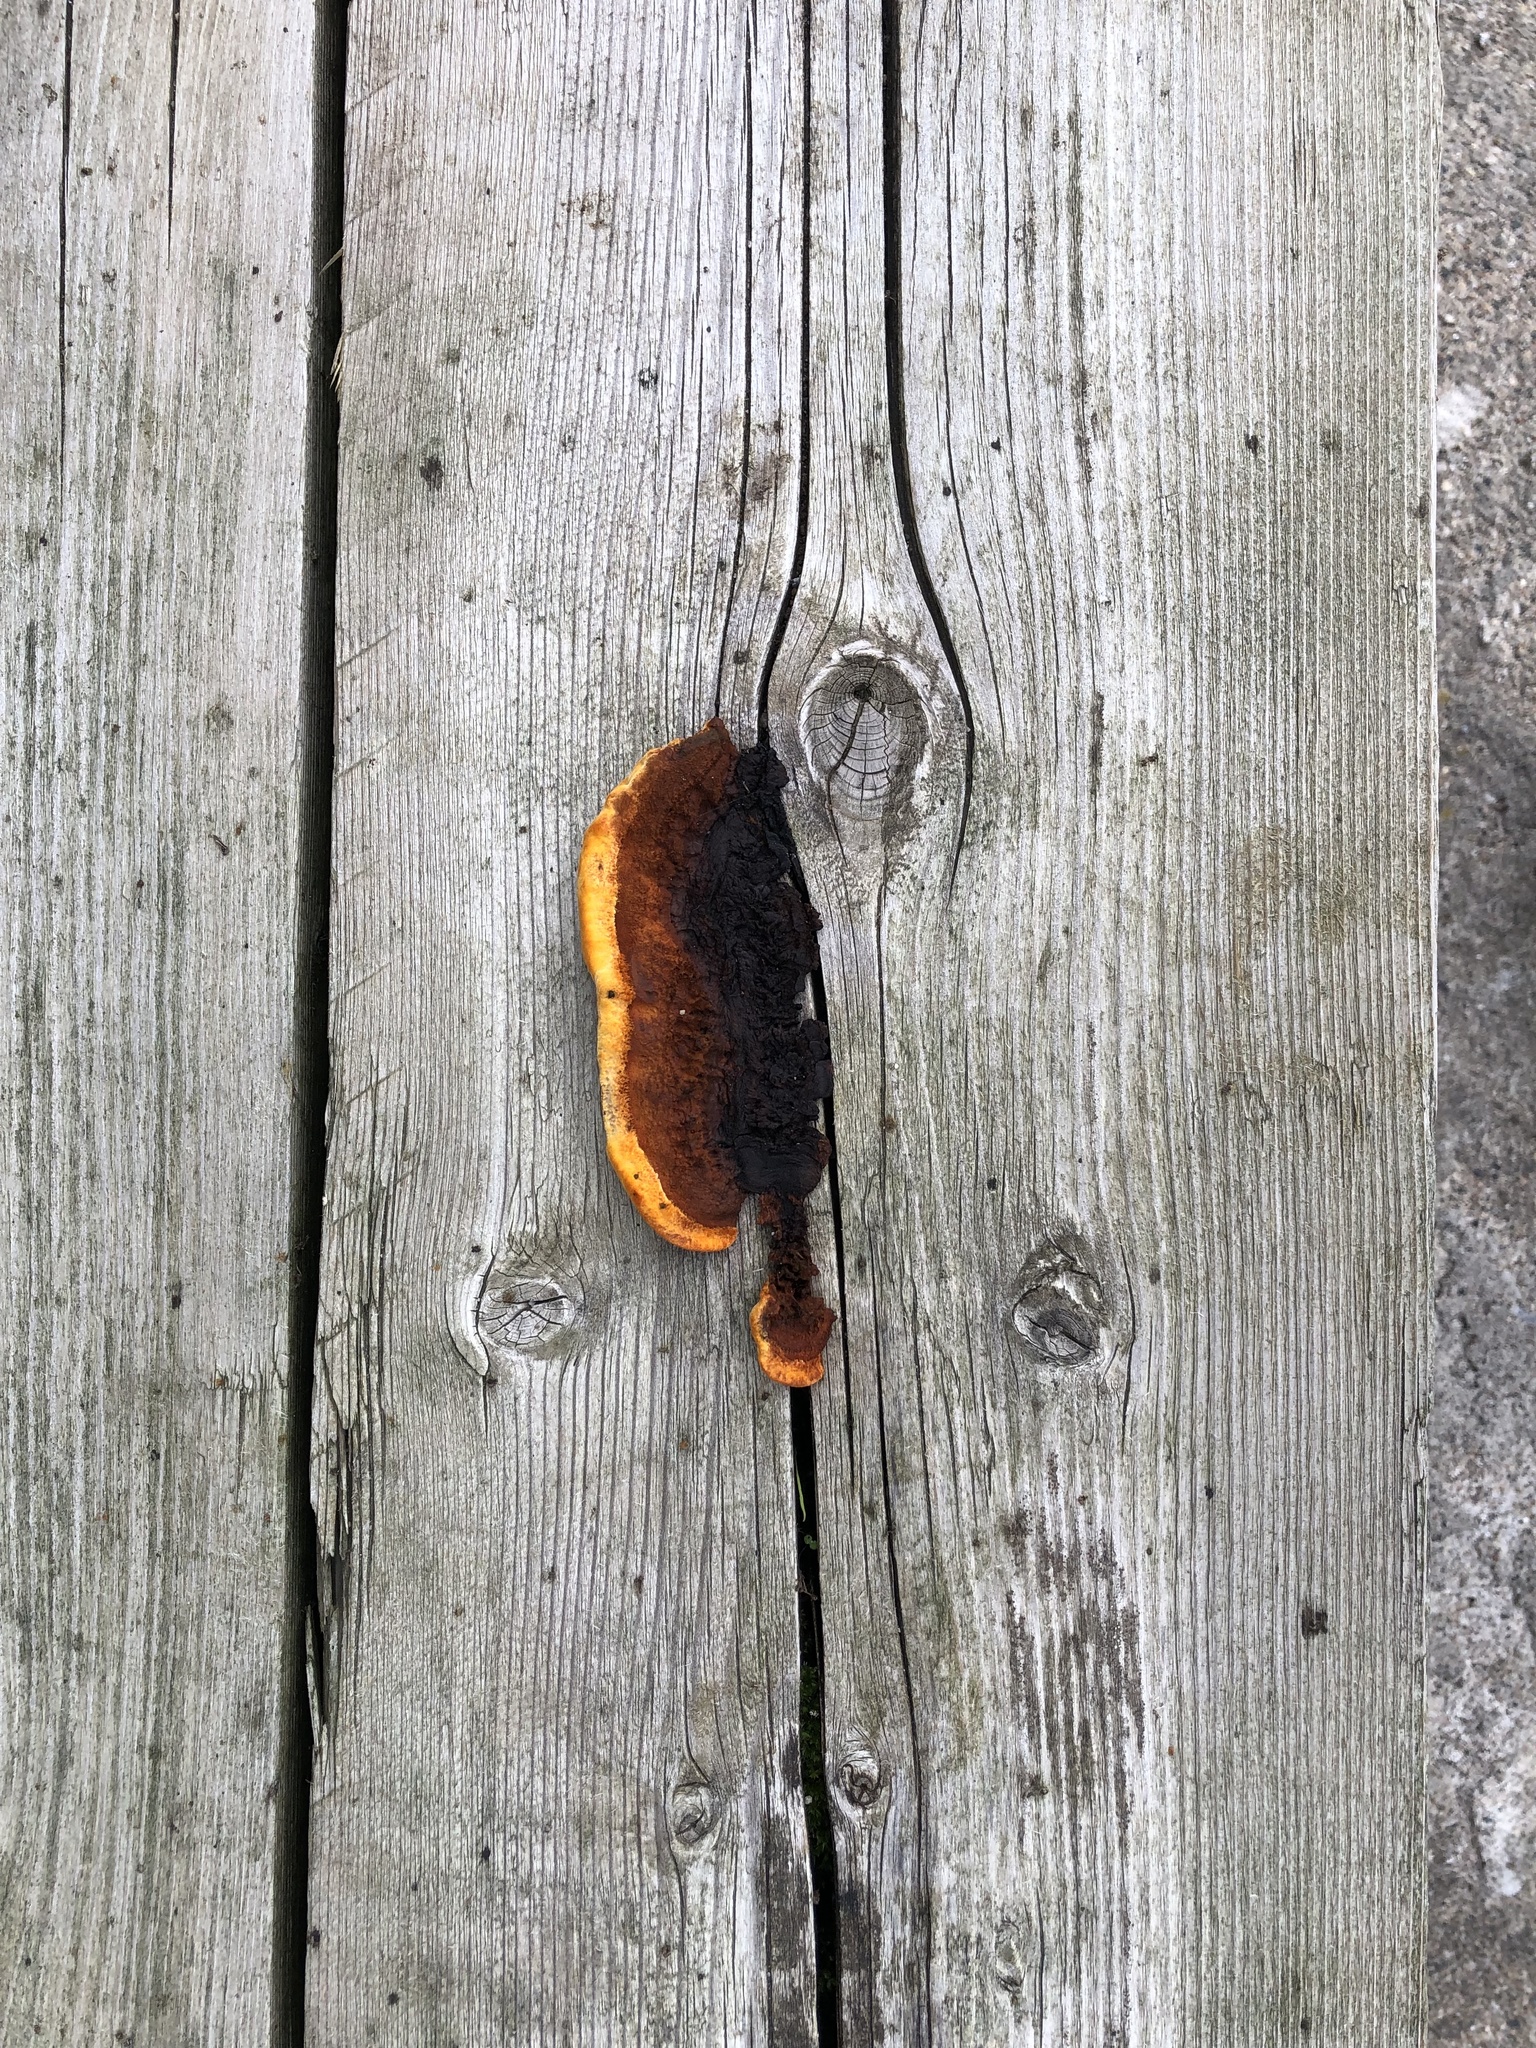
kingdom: Fungi
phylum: Basidiomycota
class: Agaricomycetes
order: Gloeophyllales
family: Gloeophyllaceae
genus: Gloeophyllum
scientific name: Gloeophyllum sepiarium
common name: Conifer mazegill
